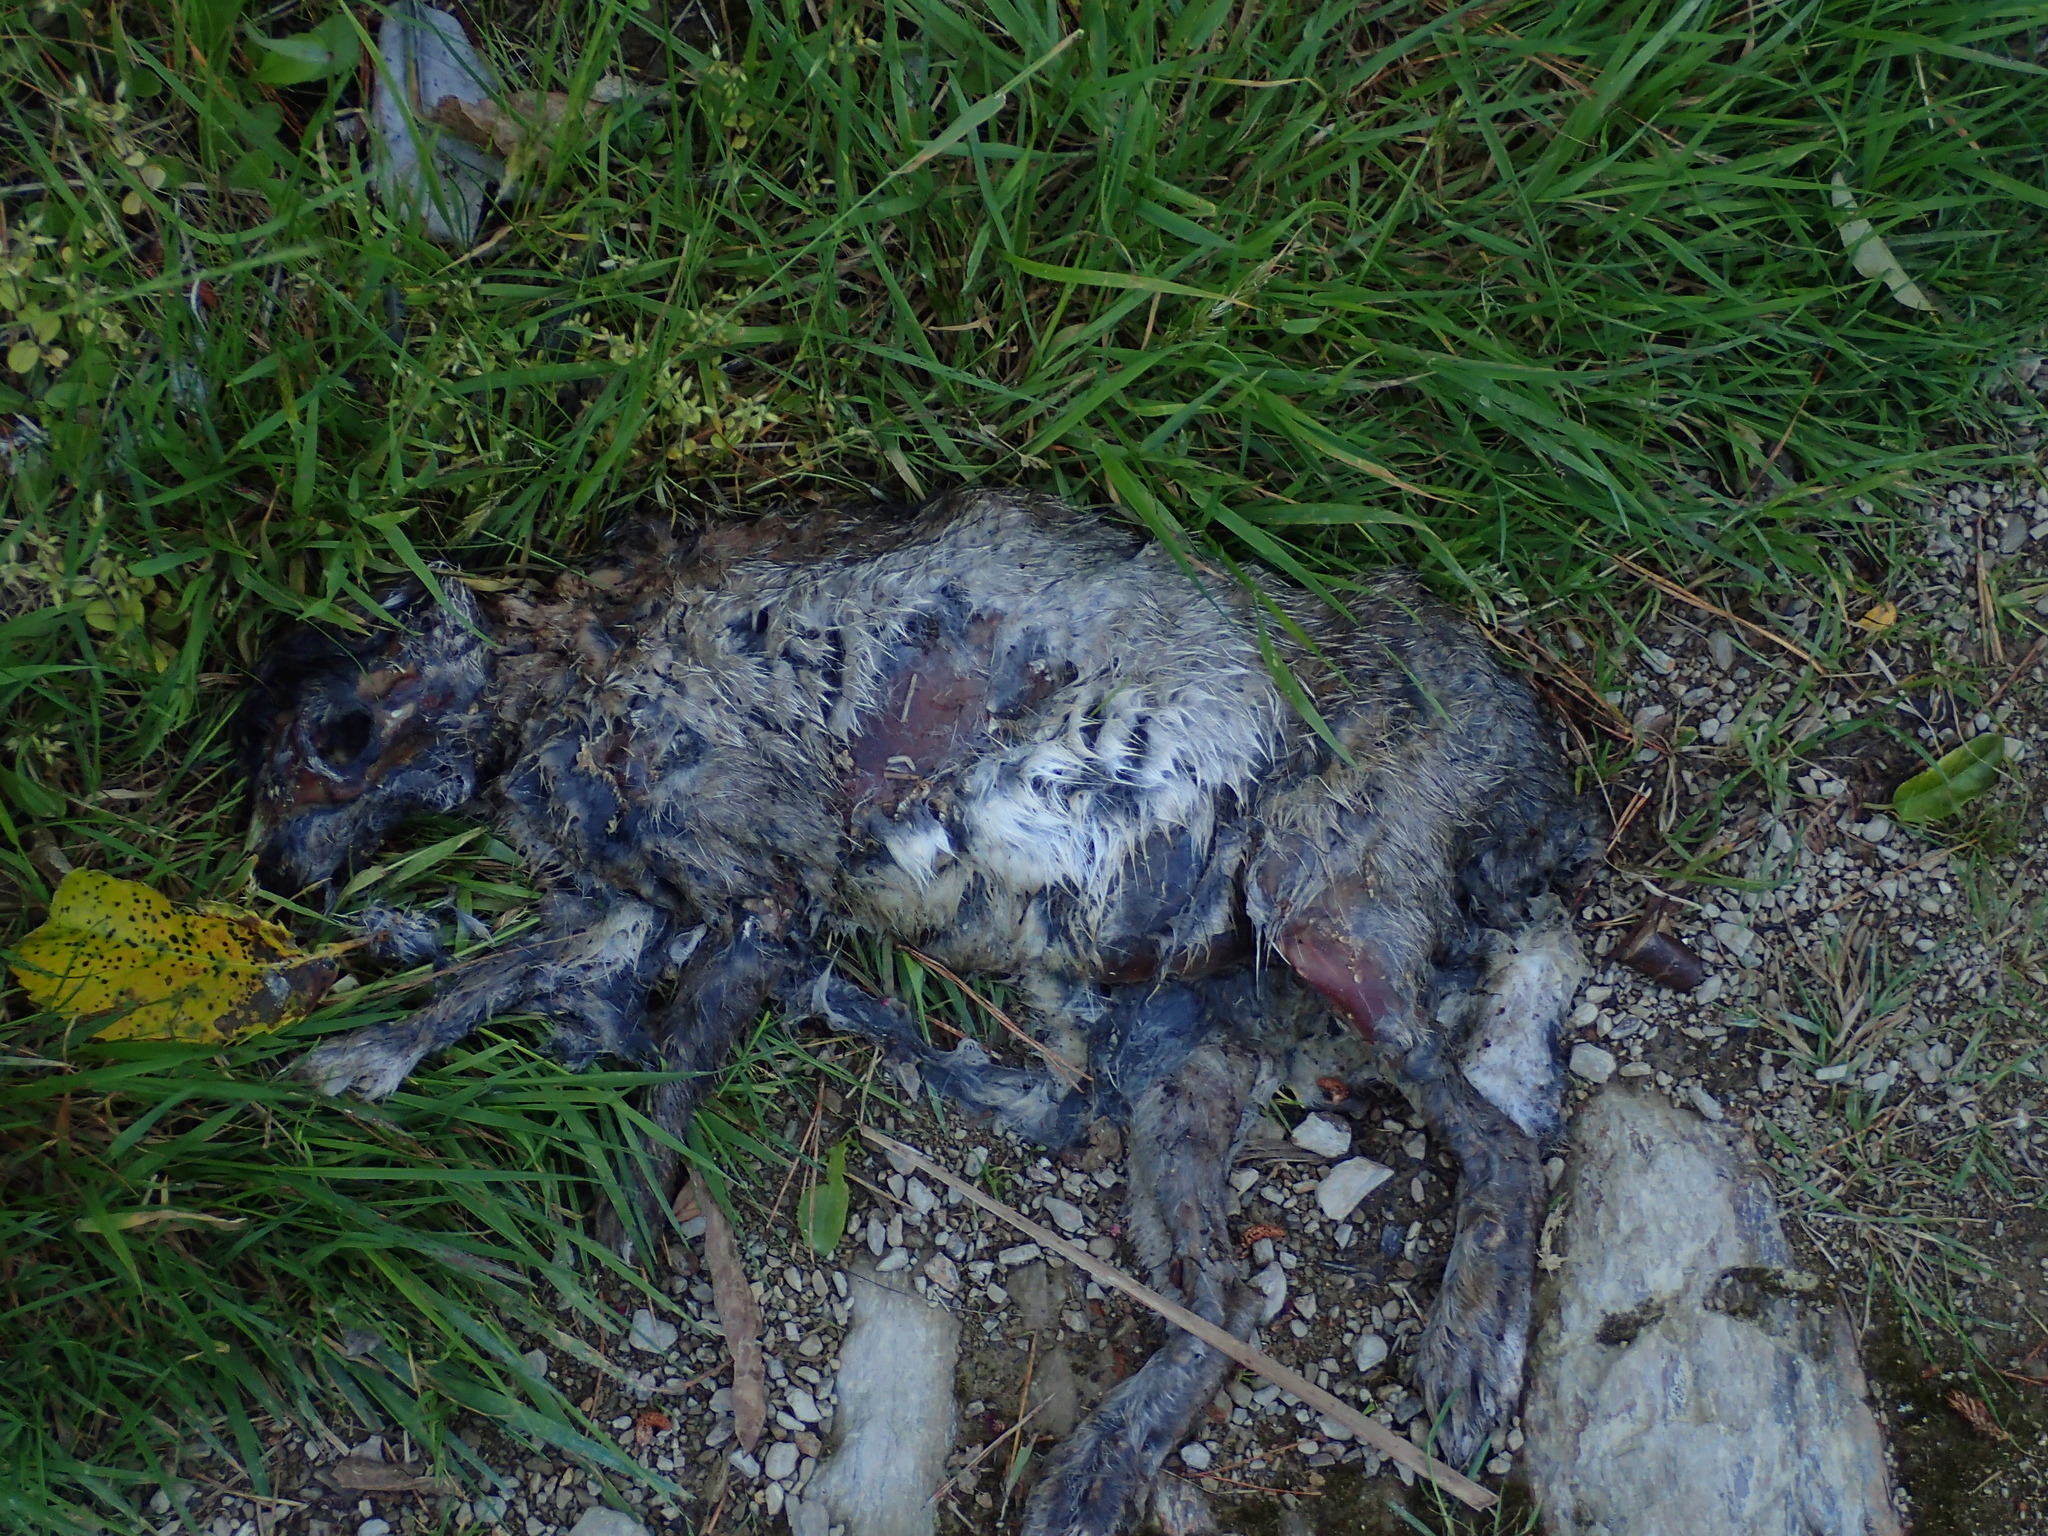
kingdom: Animalia
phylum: Chordata
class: Mammalia
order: Lagomorpha
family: Leporidae
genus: Oryctolagus
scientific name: Oryctolagus cuniculus
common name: European rabbit
